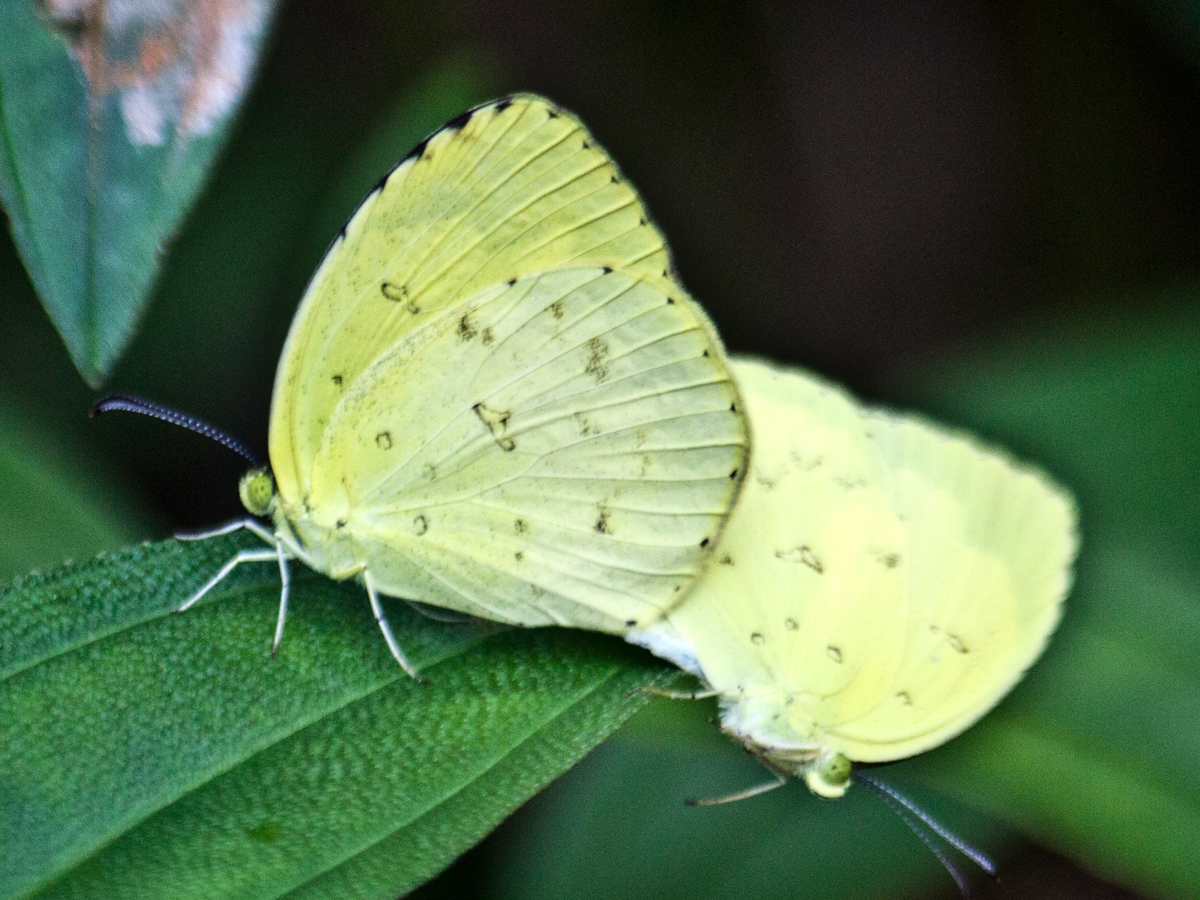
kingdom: Animalia
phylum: Arthropoda
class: Insecta
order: Lepidoptera
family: Pieridae
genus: Eurema
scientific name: Eurema hecabe
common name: Pale grass yellow
